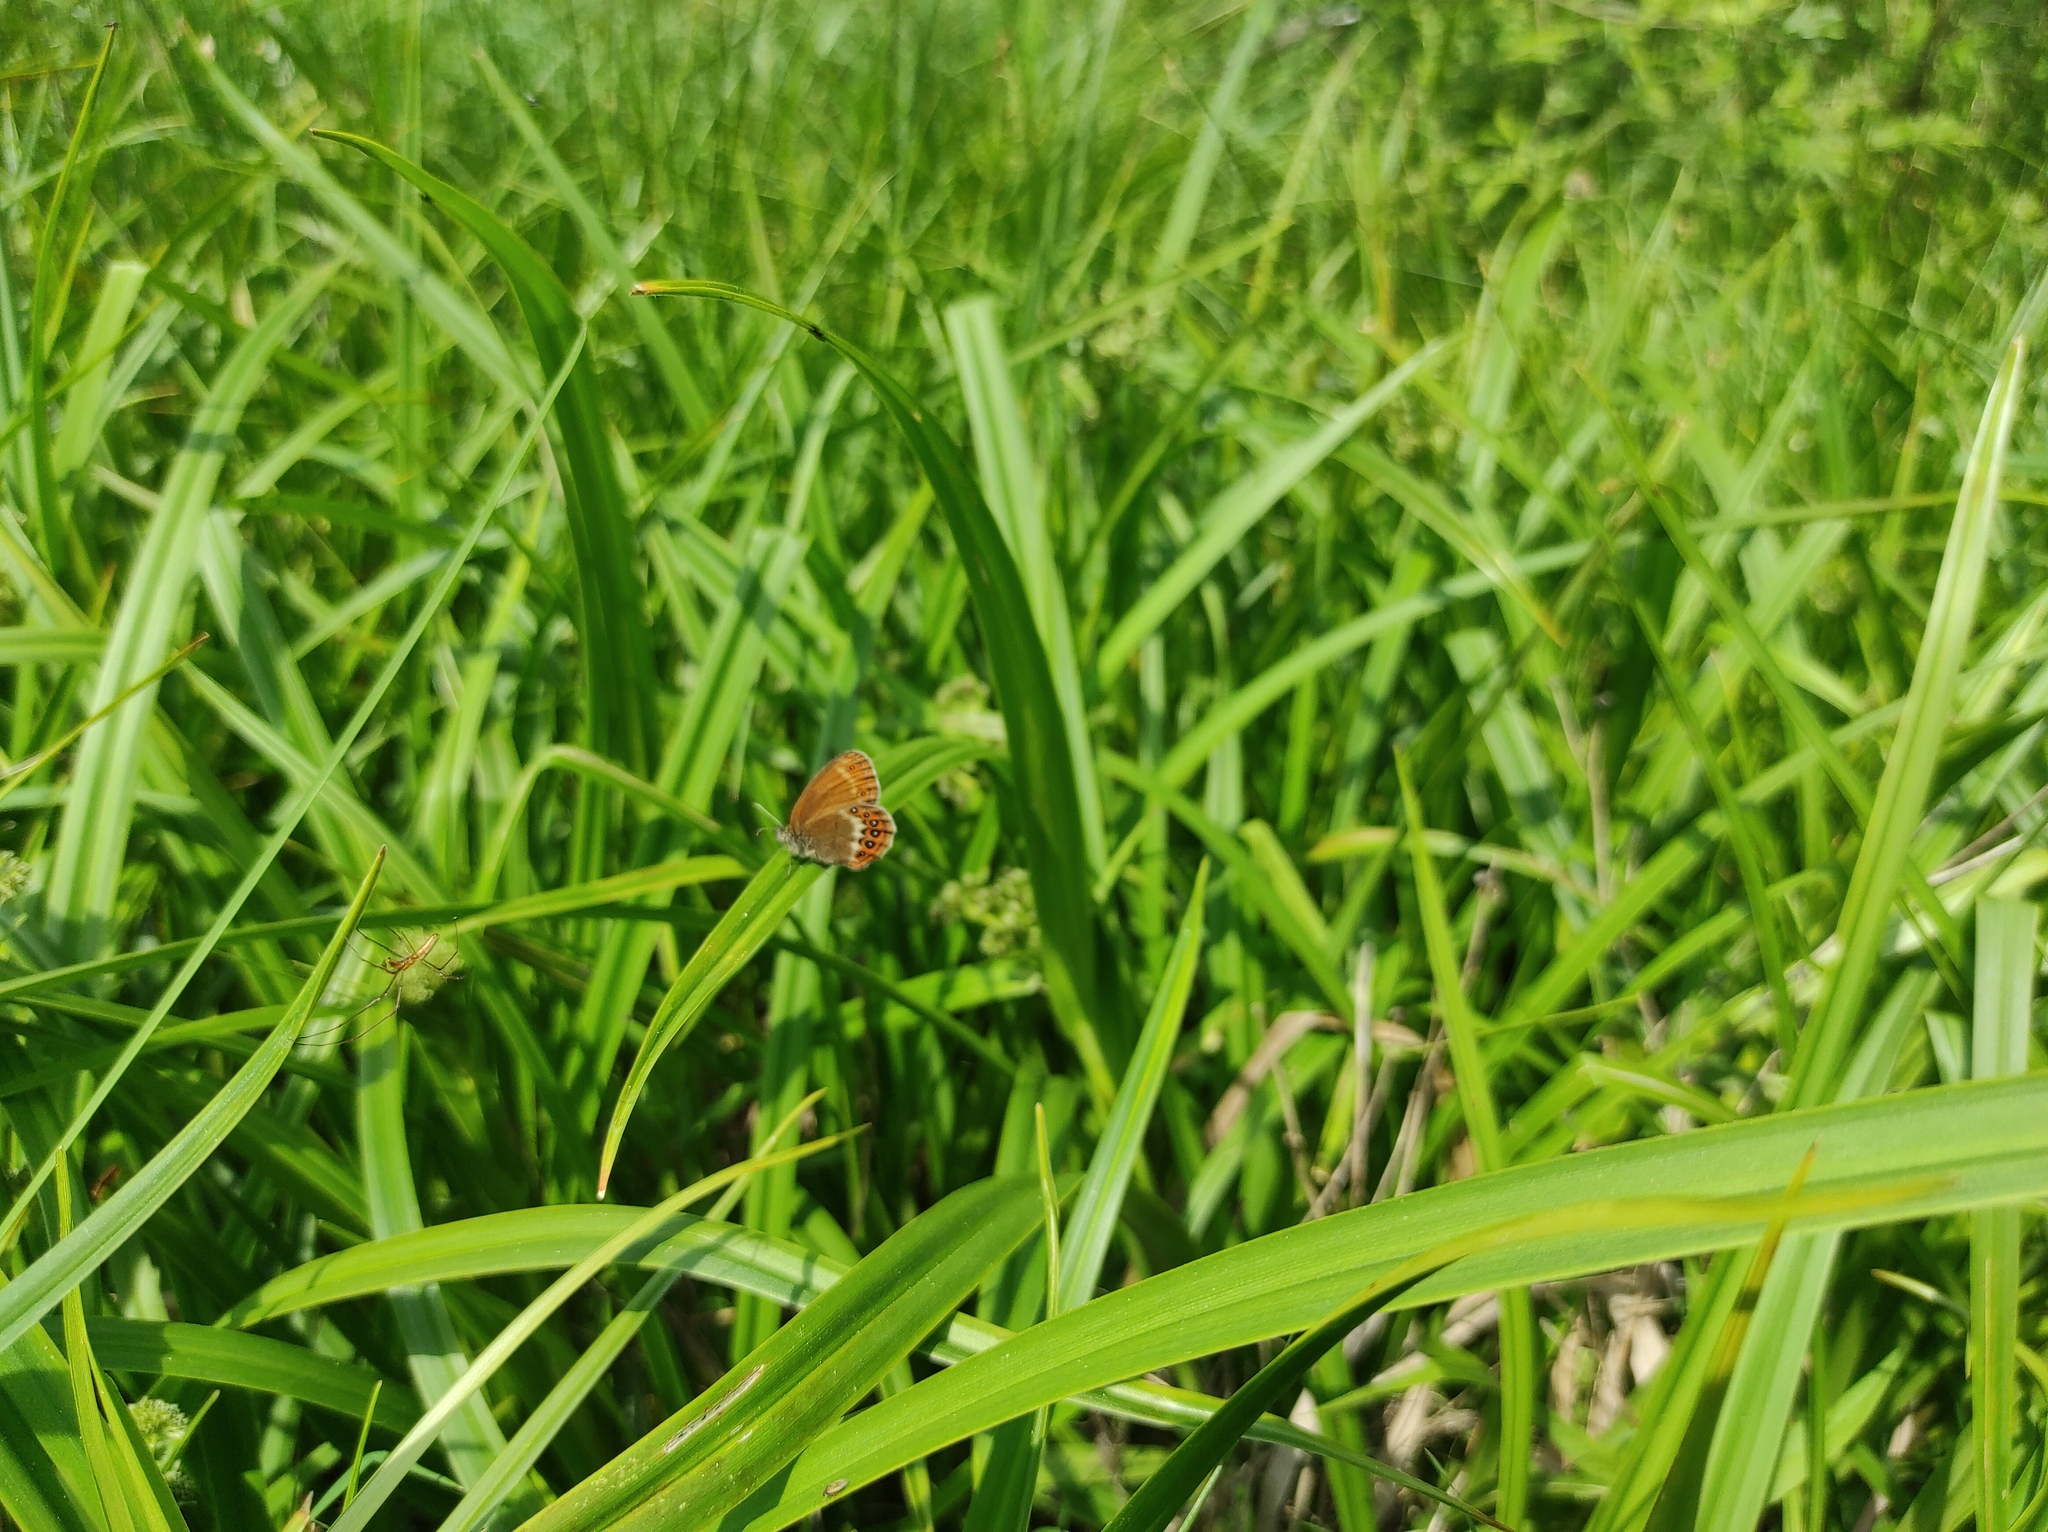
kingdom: Animalia
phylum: Arthropoda
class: Insecta
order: Lepidoptera
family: Nymphalidae
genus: Coenonympha
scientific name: Coenonympha hero
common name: Scarce heath
